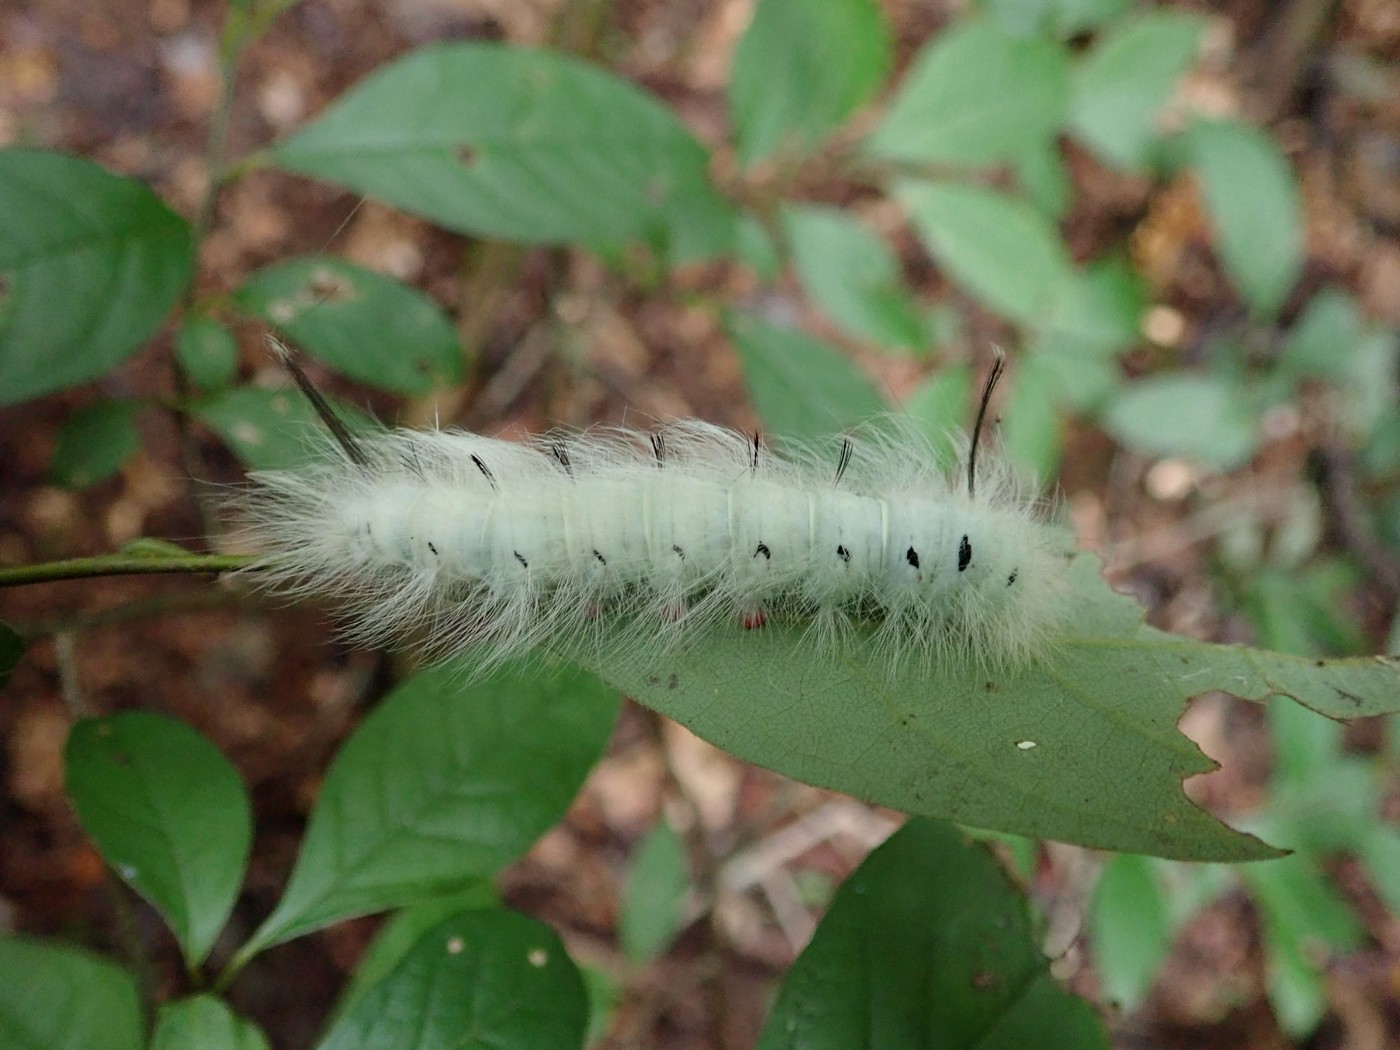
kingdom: Animalia
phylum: Arthropoda
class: Insecta
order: Lepidoptera
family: Apatelodidae
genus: Hygrochroa
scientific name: Hygrochroa Apatelodes torrefacta
